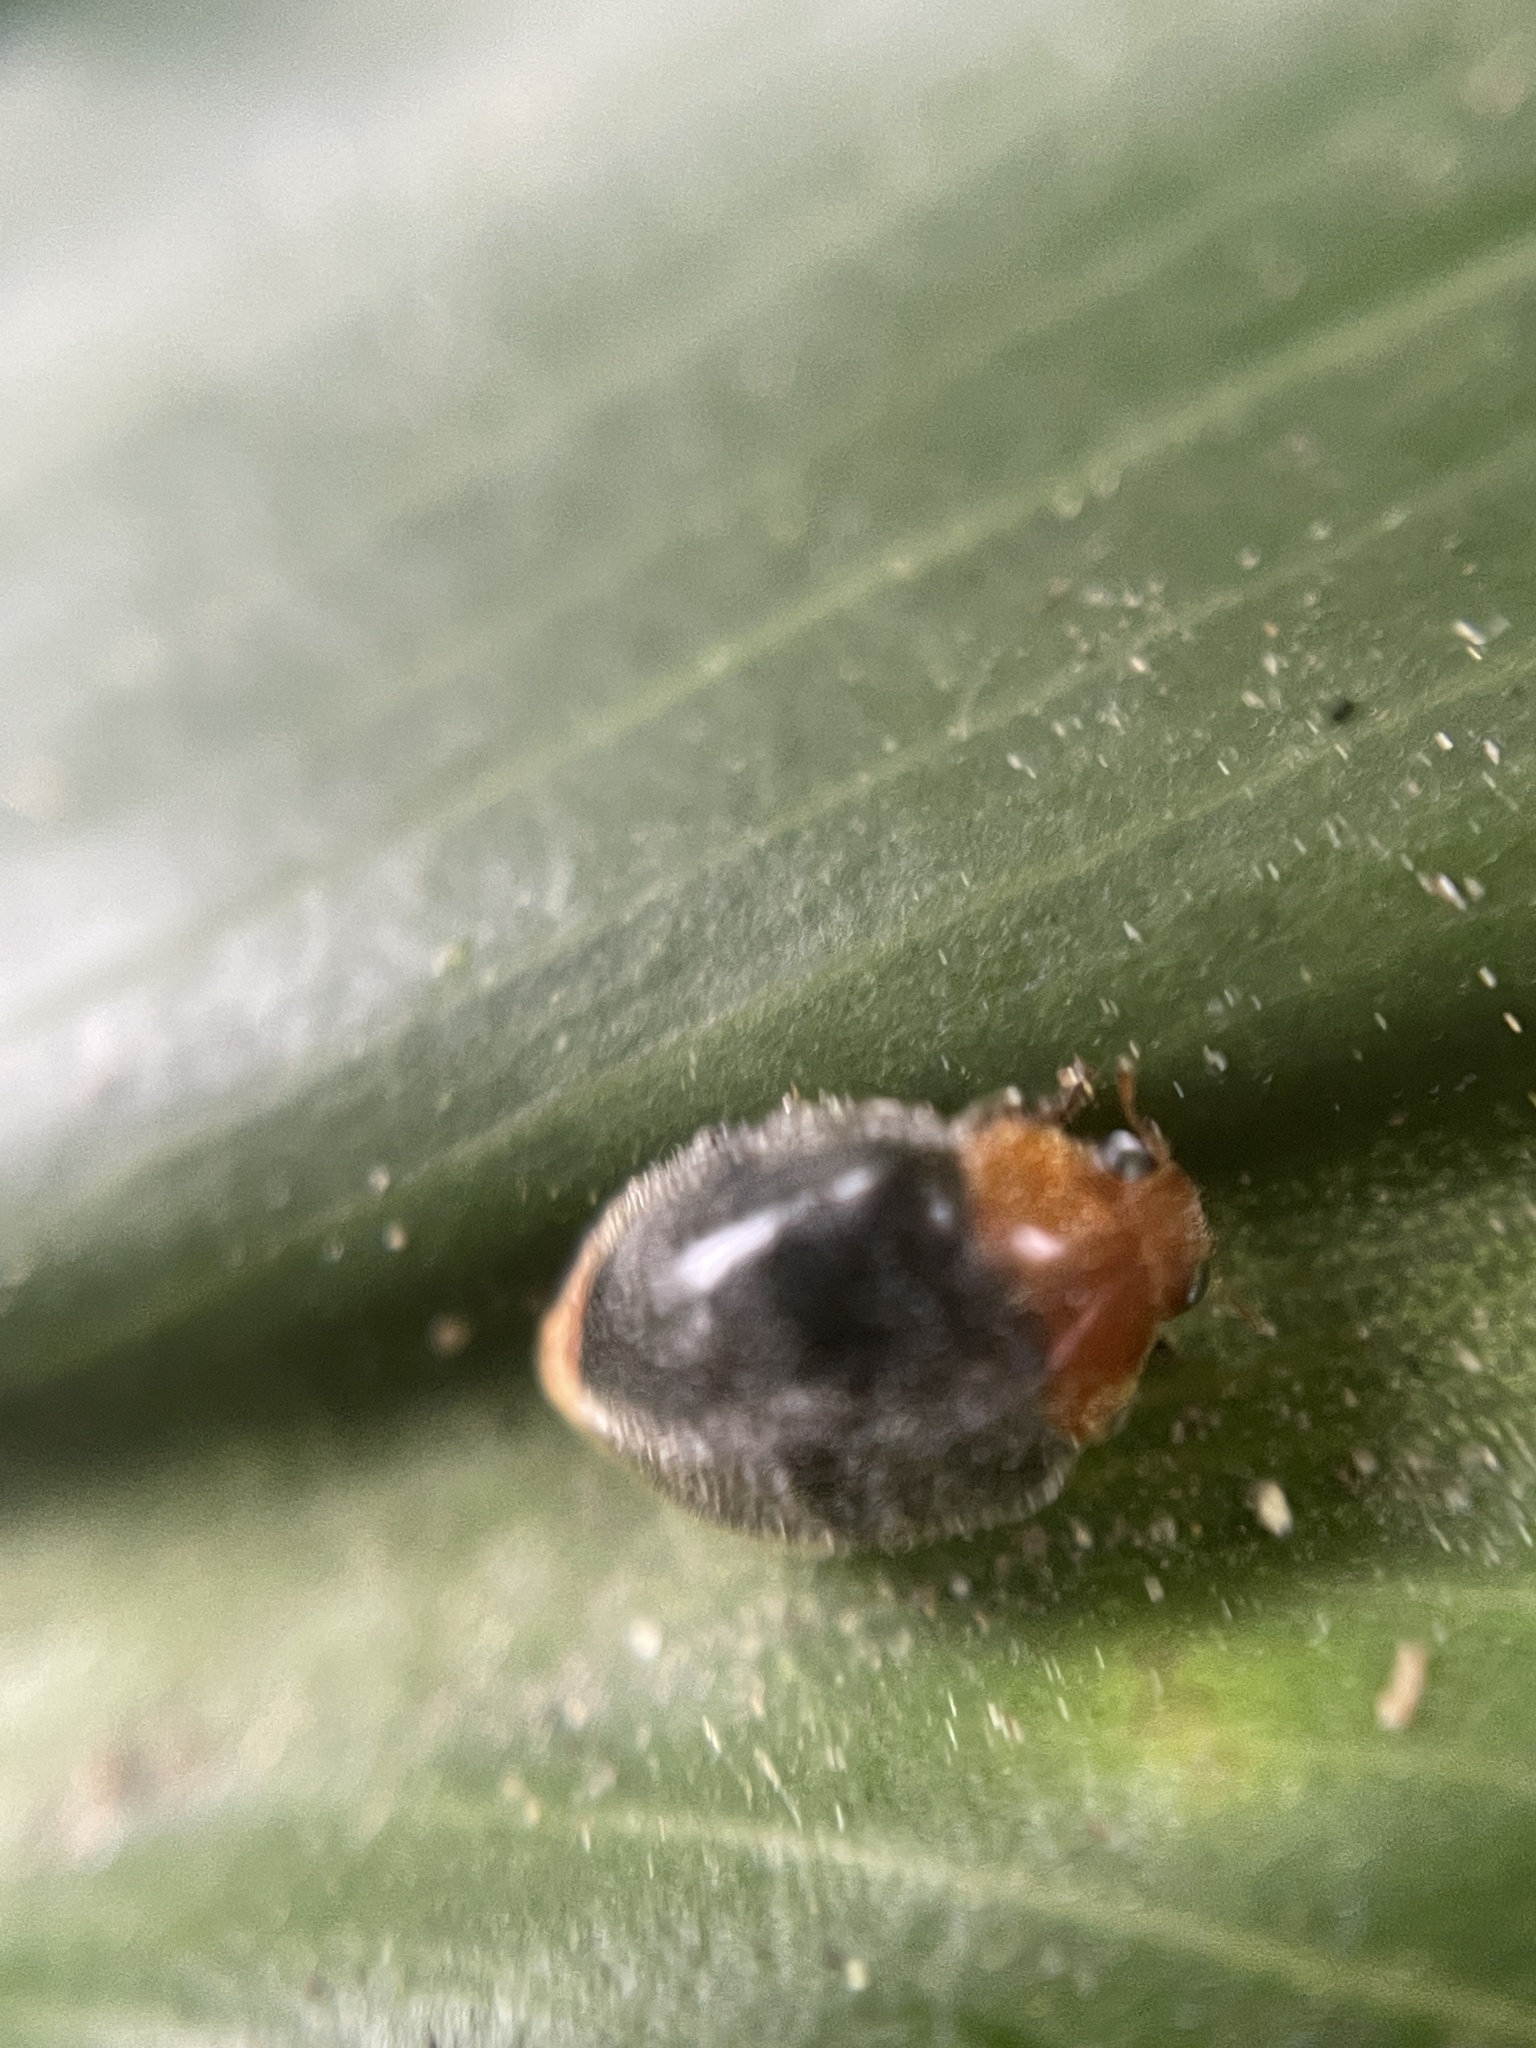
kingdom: Animalia
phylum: Arthropoda
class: Insecta
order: Coleoptera
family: Coccinellidae
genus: Cryptolaemus
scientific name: Cryptolaemus montrouzieri
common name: Mealybug destroyer
